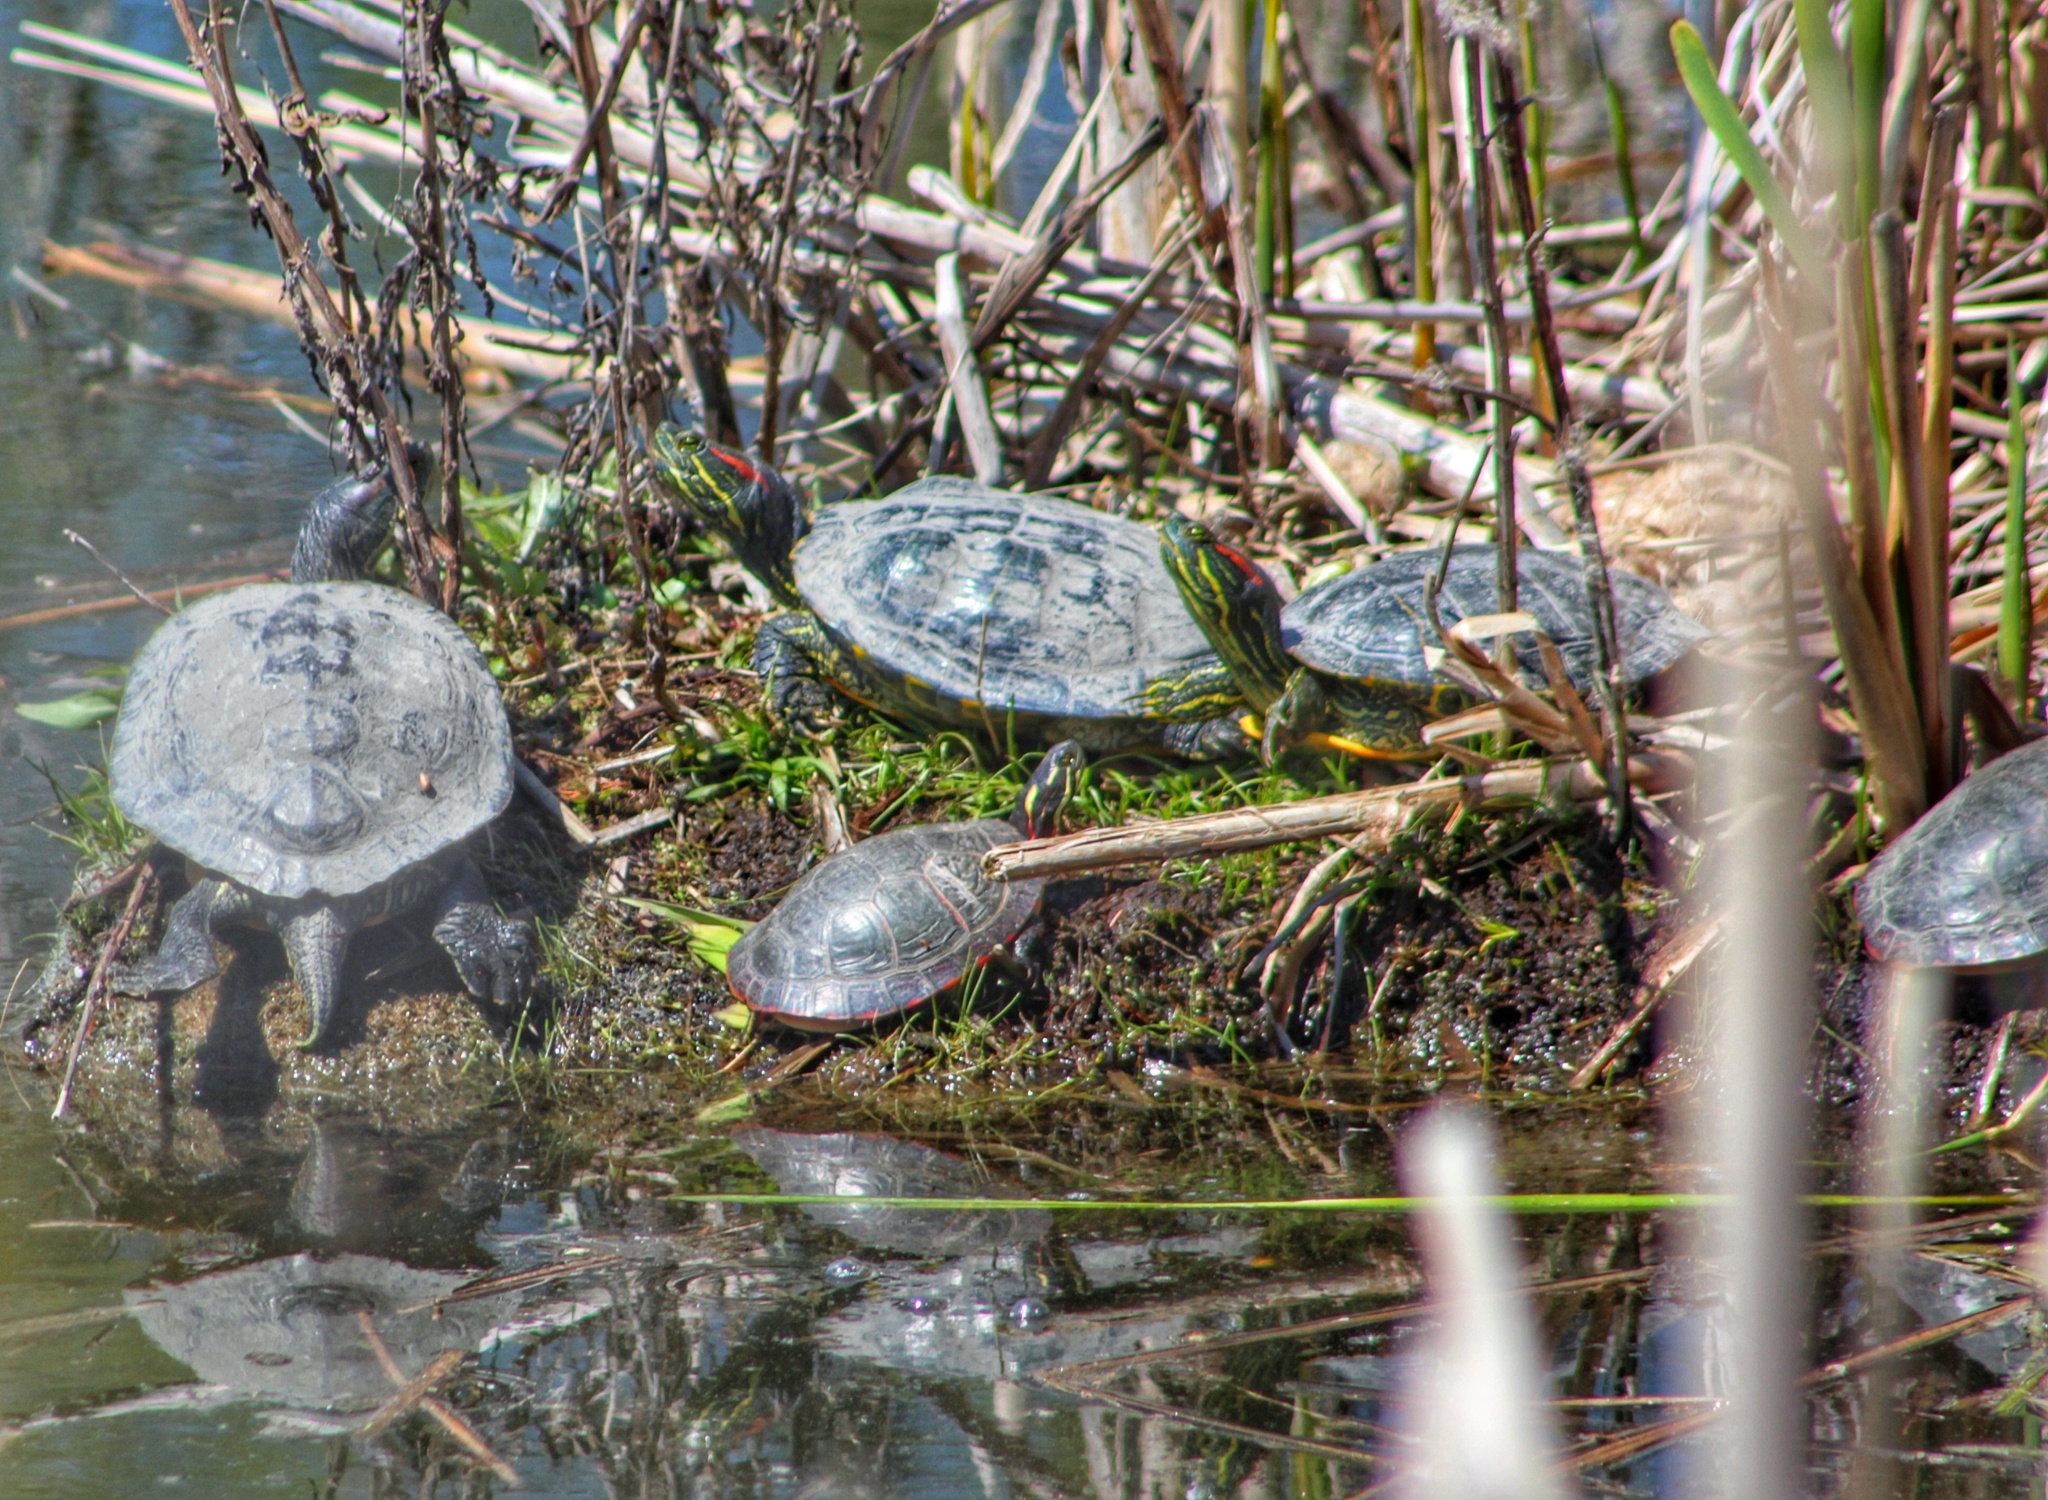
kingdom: Animalia
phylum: Chordata
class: Testudines
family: Emydidae
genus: Chrysemys
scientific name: Chrysemys picta
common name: Painted turtle
